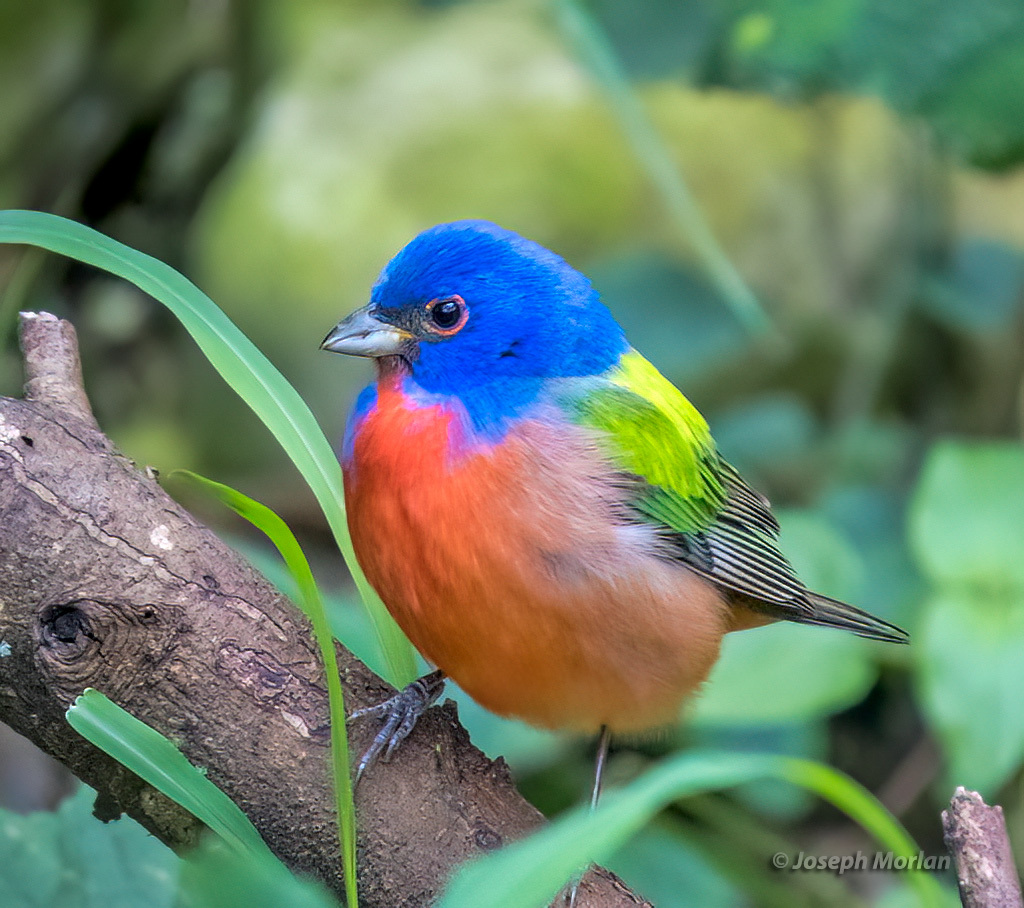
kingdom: Animalia
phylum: Chordata
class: Aves
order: Passeriformes
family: Cardinalidae
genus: Passerina
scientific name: Passerina ciris
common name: Painted bunting
